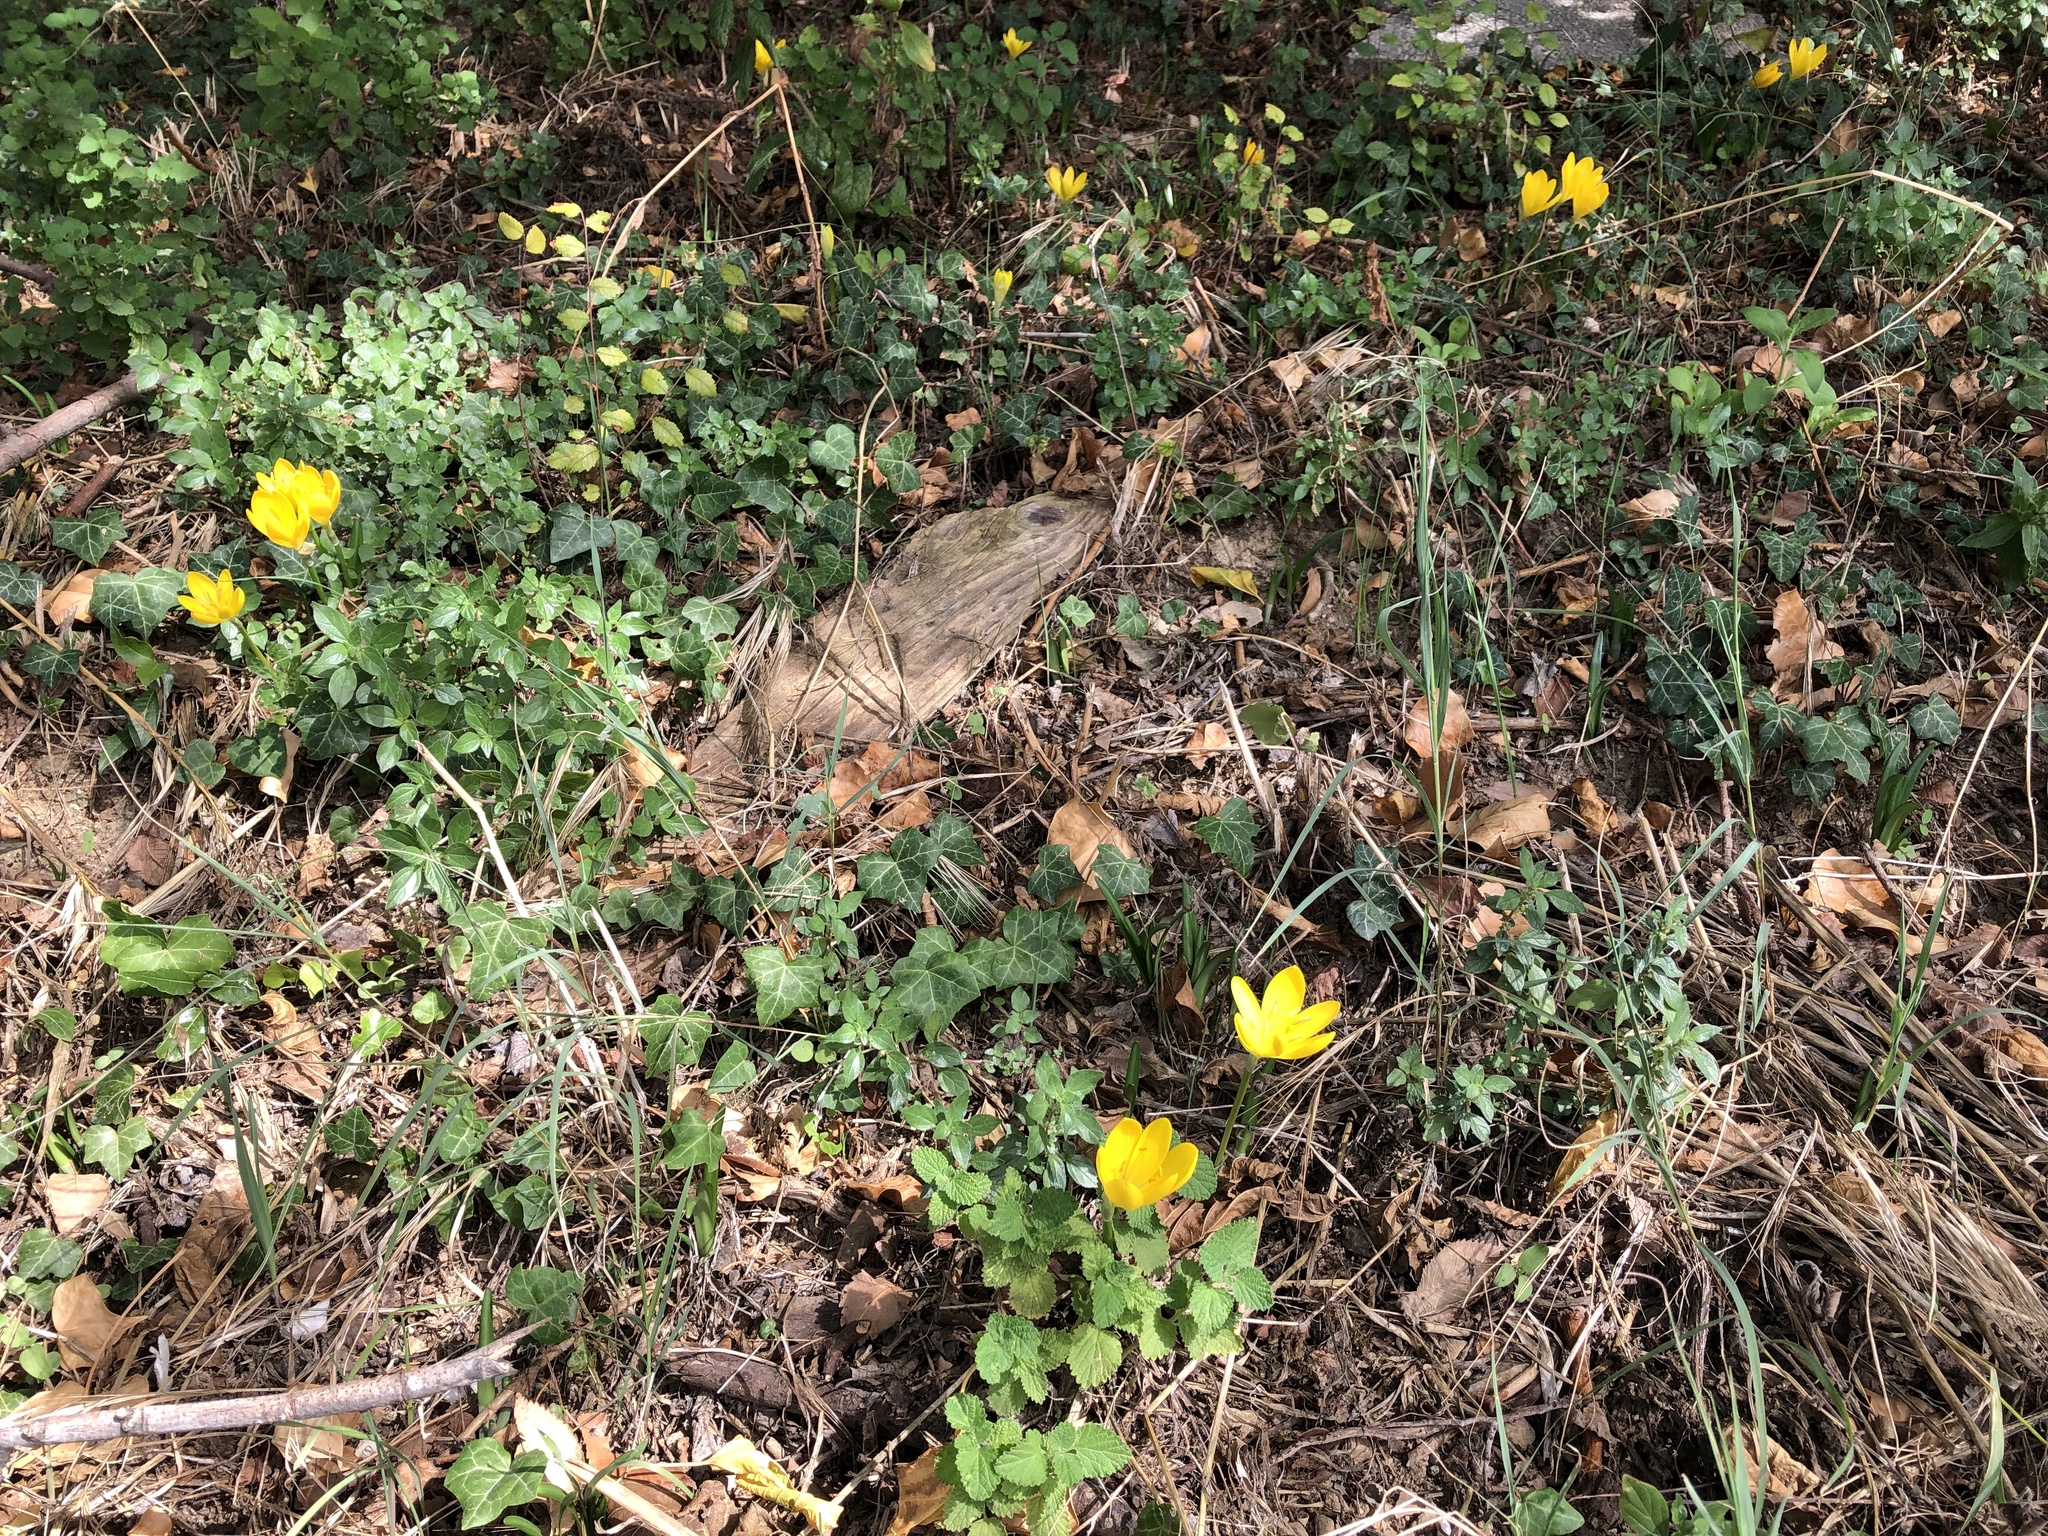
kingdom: Plantae
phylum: Tracheophyta
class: Liliopsida
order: Asparagales
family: Amaryllidaceae
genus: Sternbergia
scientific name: Sternbergia lutea
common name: Winter daffodil
